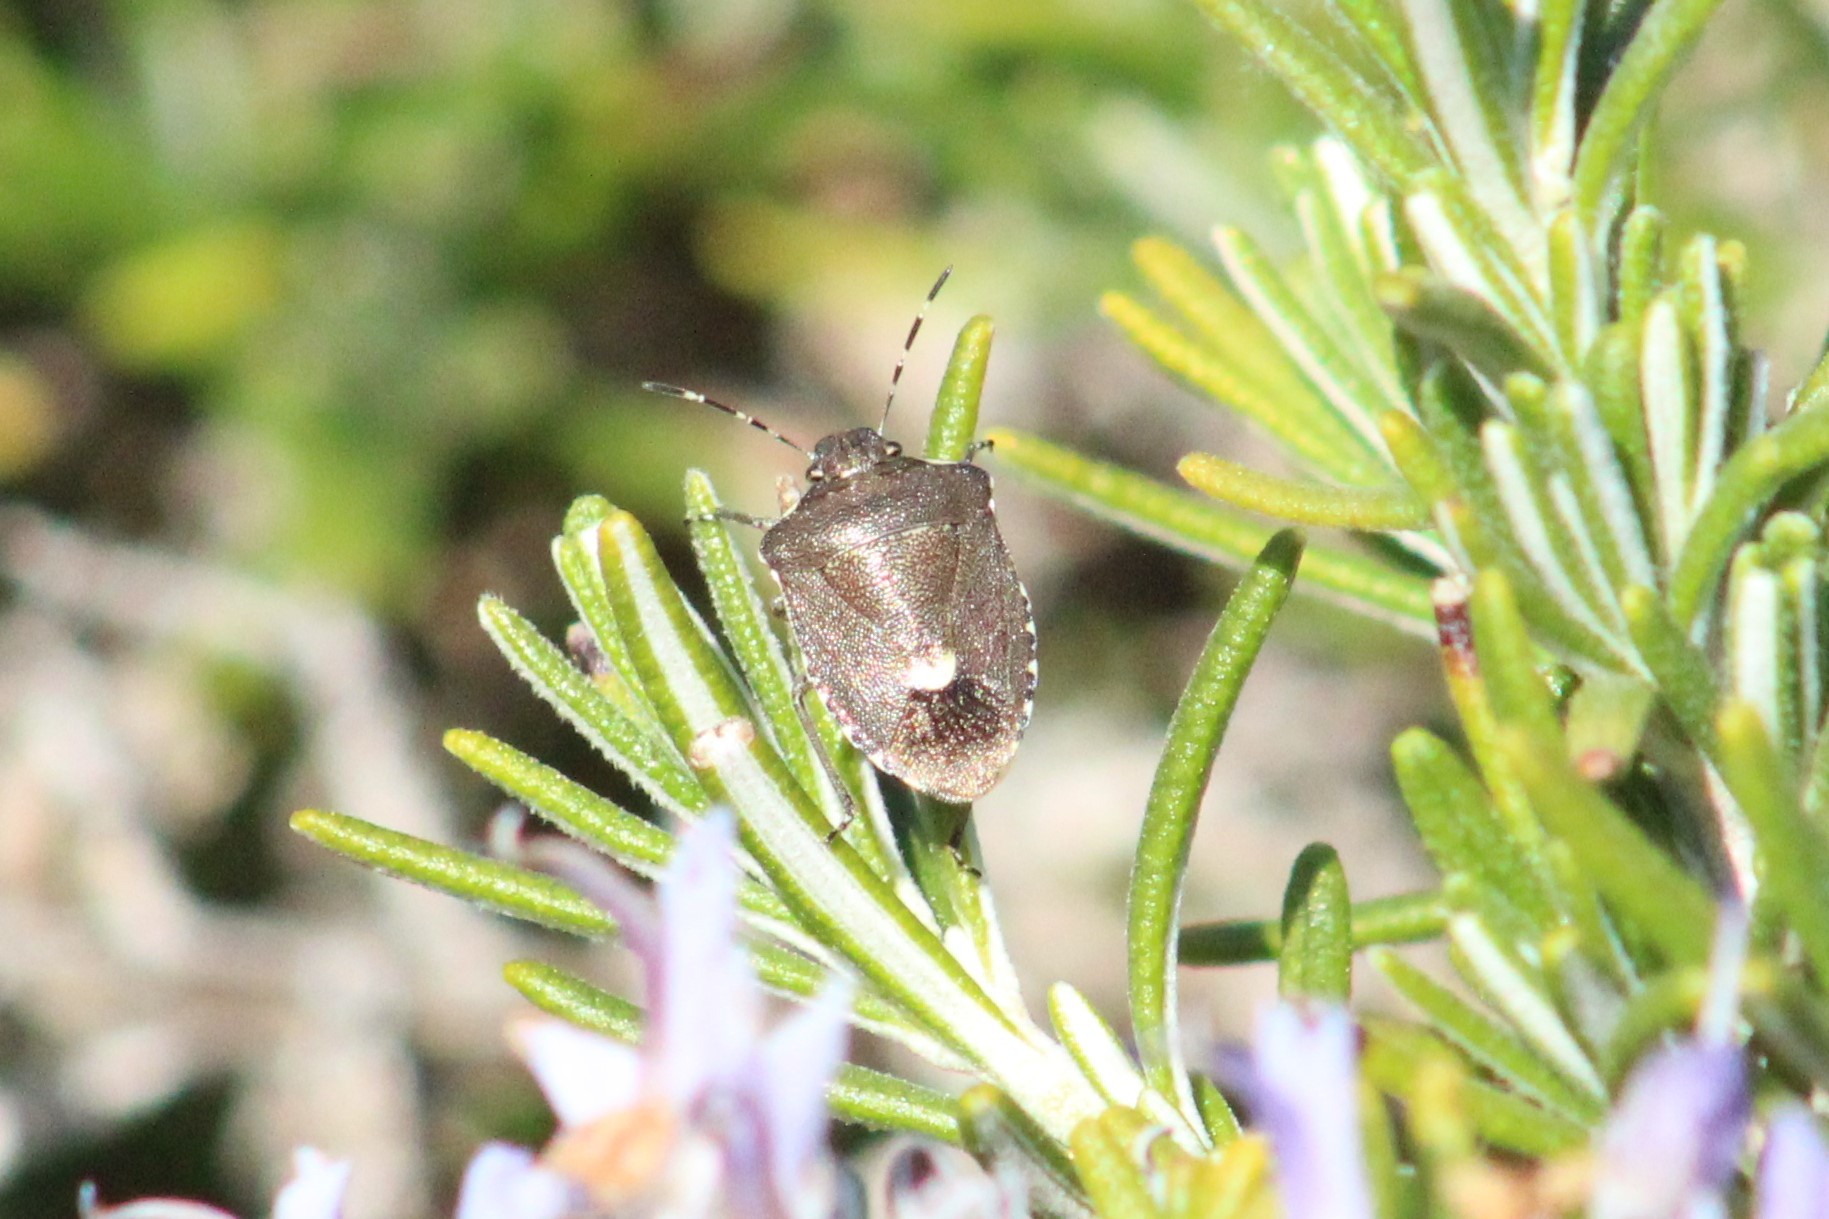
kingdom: Animalia
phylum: Arthropoda
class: Insecta
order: Hemiptera
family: Pentatomidae
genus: Holcostethus
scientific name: Holcostethus albipes
